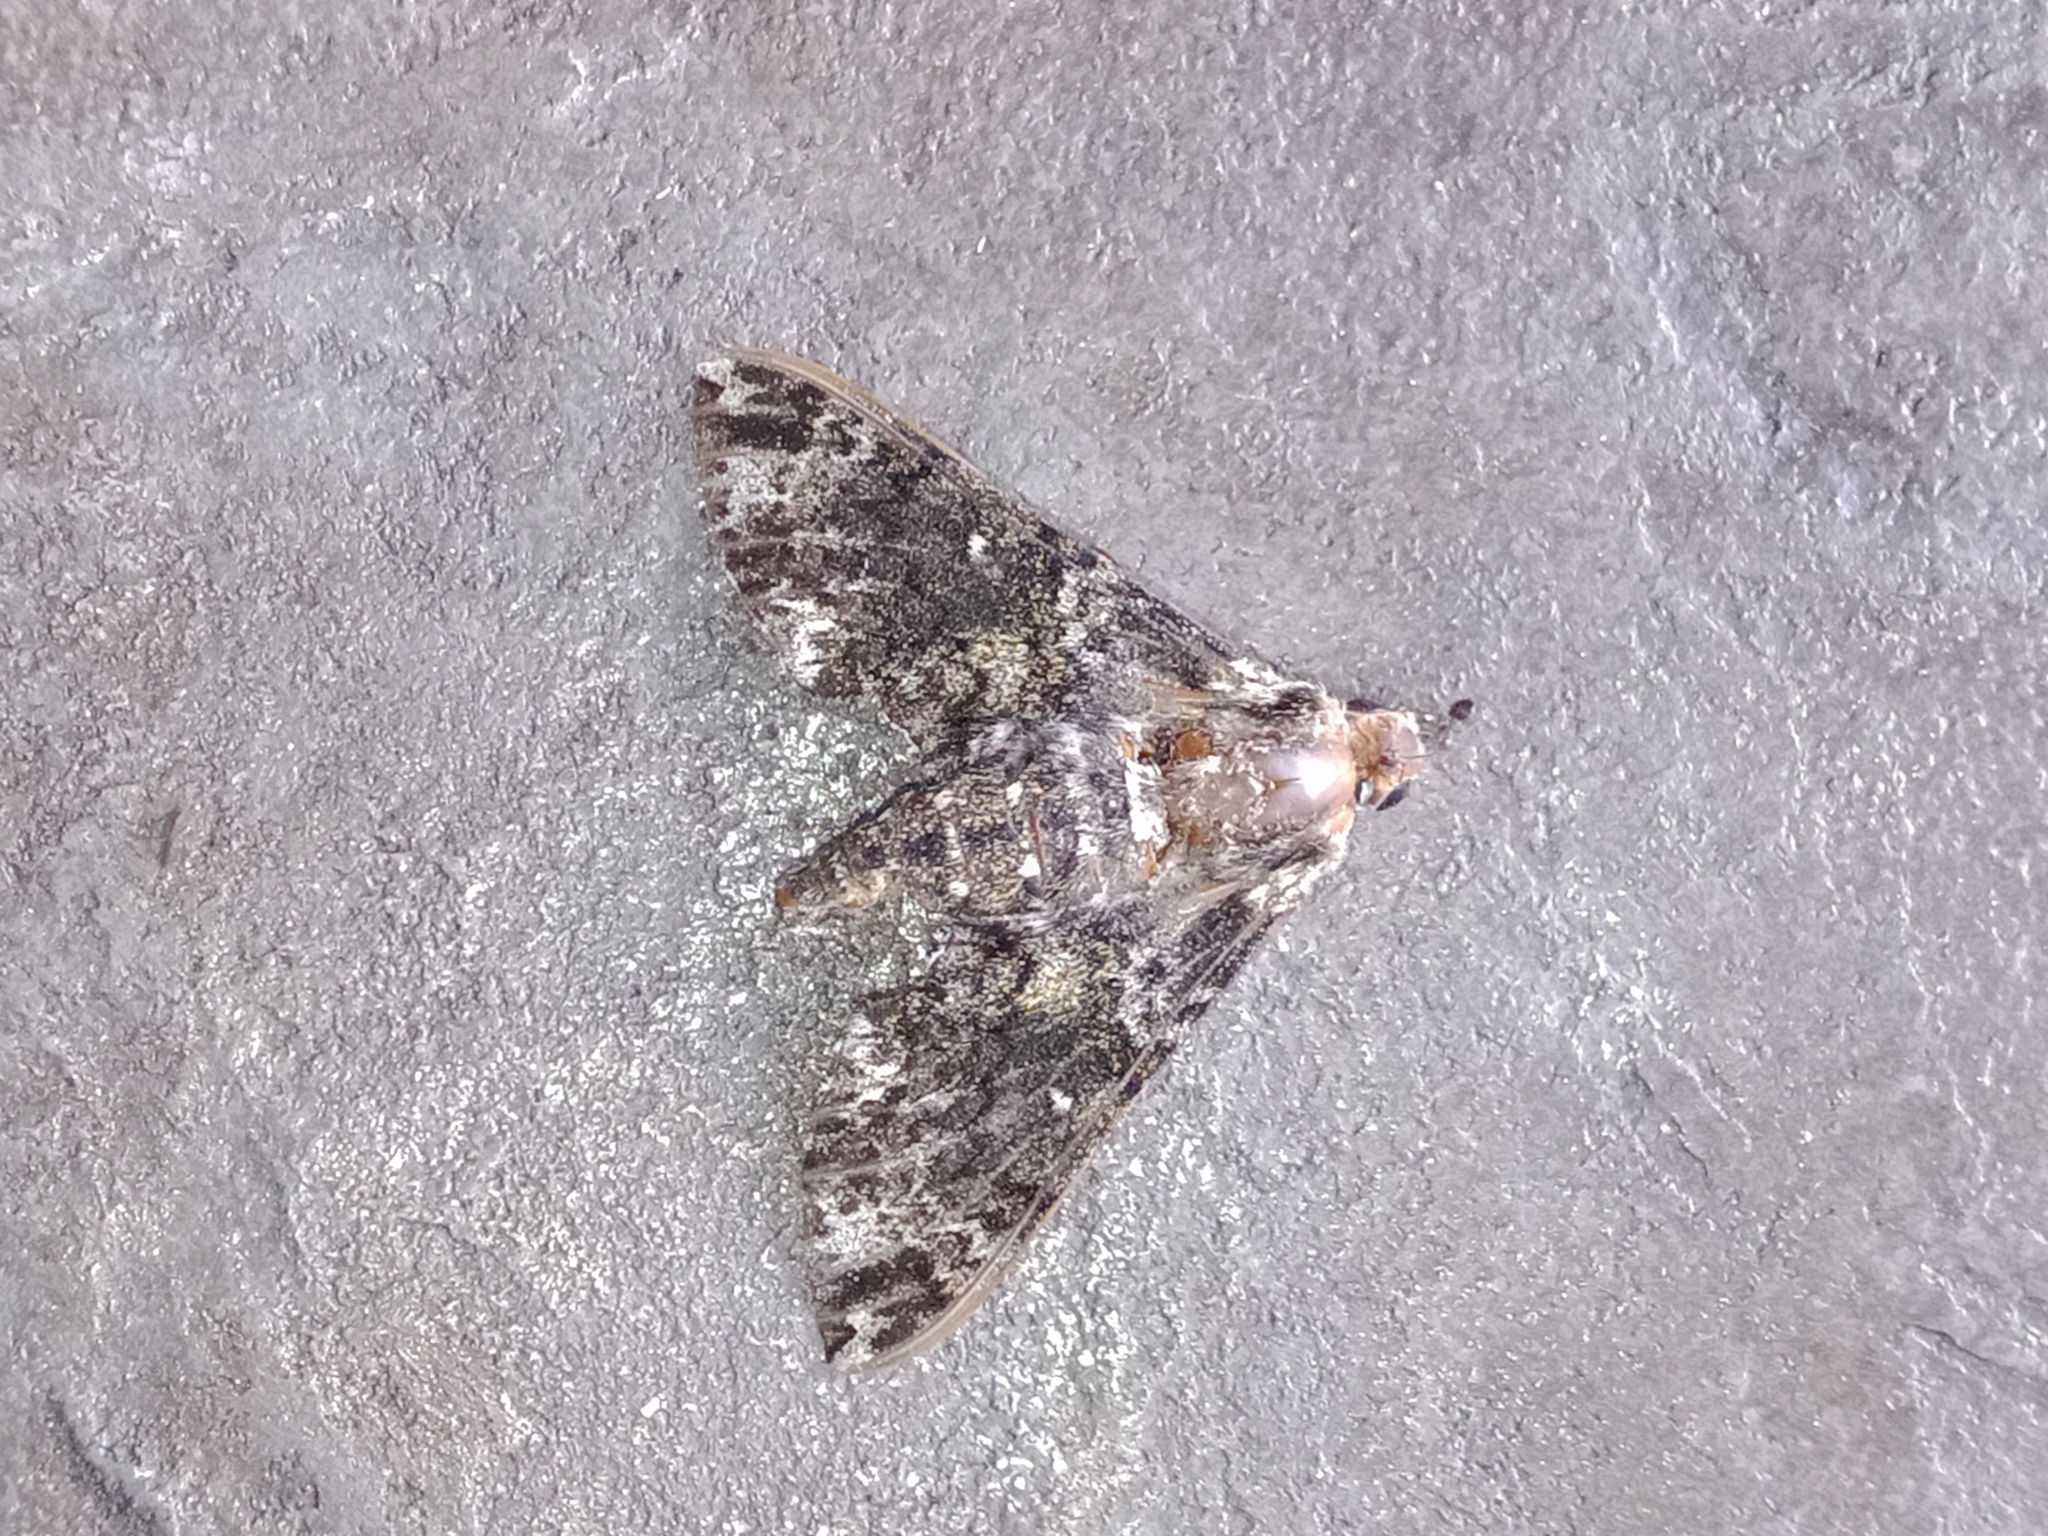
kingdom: Animalia
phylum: Arthropoda
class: Insecta
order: Lepidoptera
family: Sphingidae
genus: Dolba
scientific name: Dolba hyloeus
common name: Pawpaw sphinx
